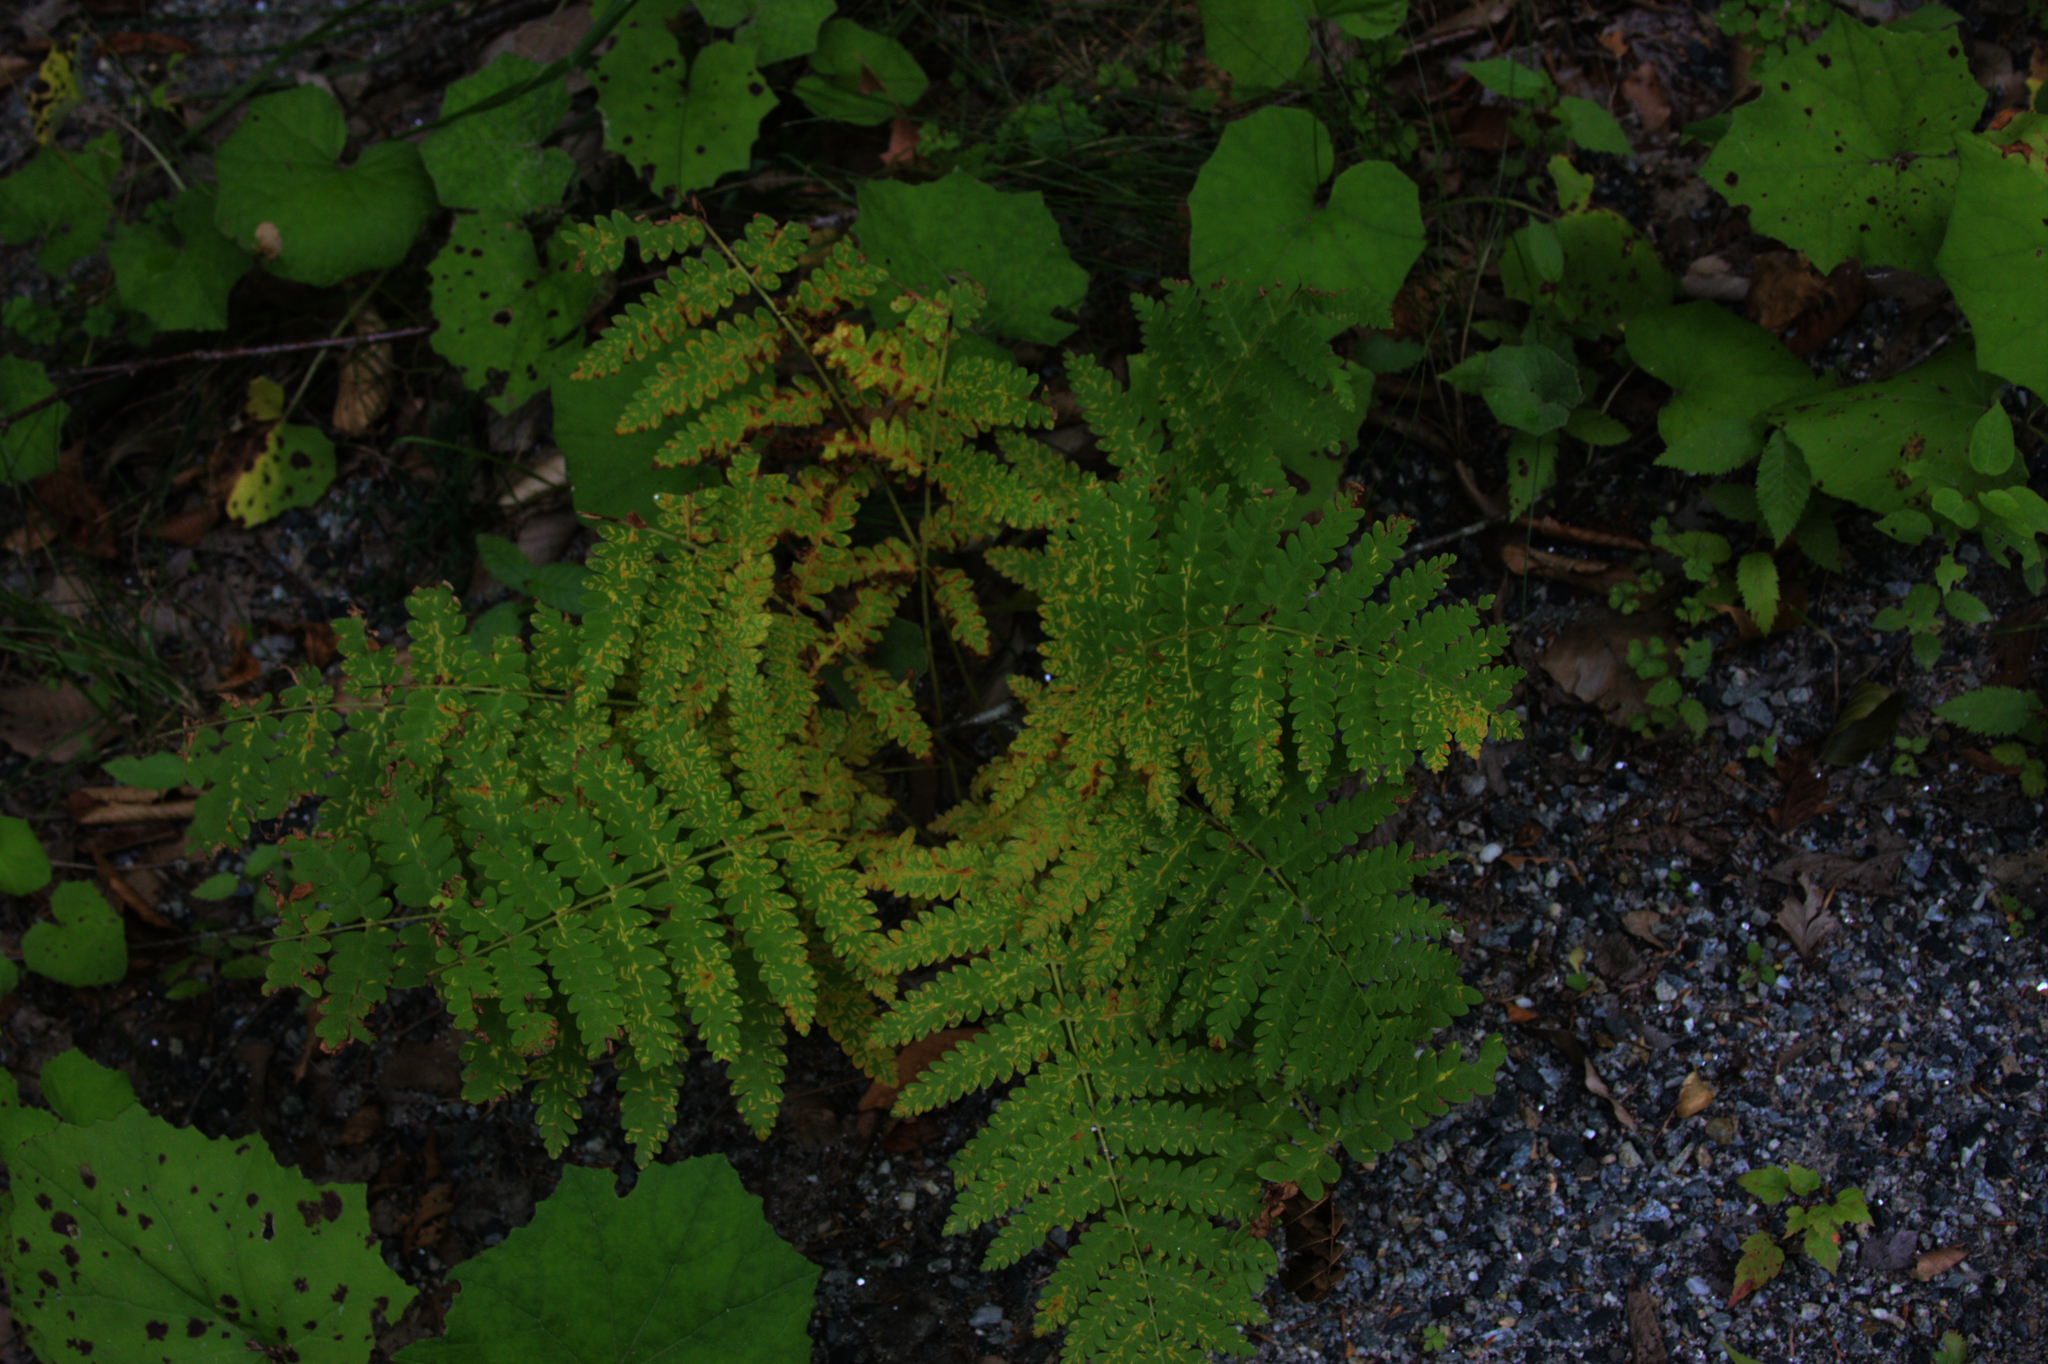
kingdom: Plantae
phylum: Tracheophyta
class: Magnoliopsida
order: Asterales
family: Asteraceae
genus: Tussilago
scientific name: Tussilago farfara
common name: Coltsfoot
